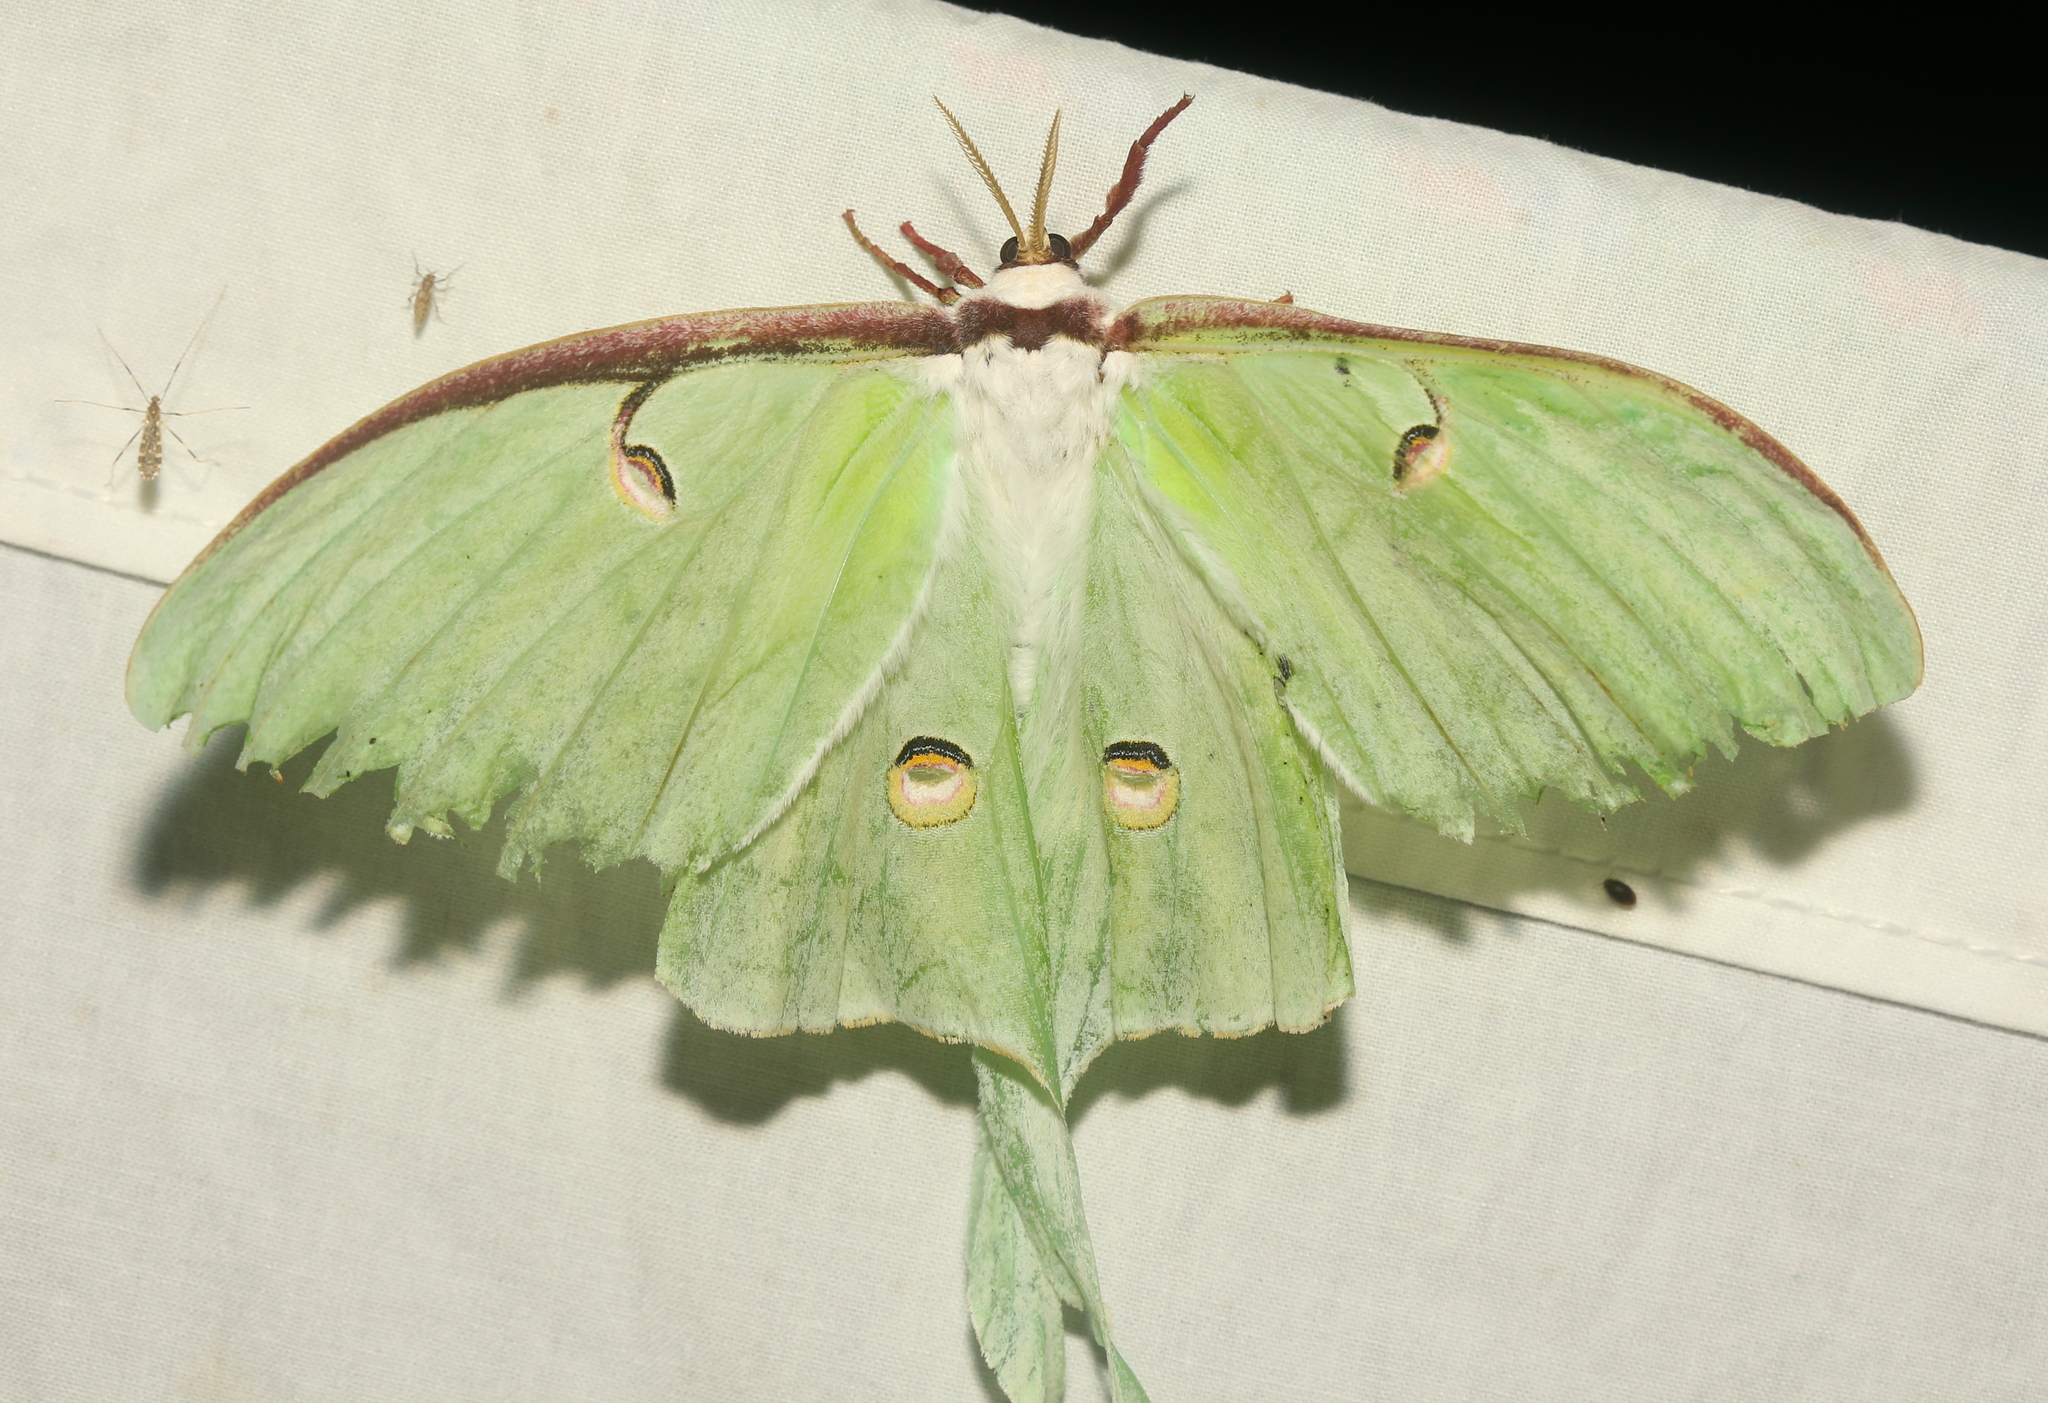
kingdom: Animalia
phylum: Arthropoda
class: Insecta
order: Lepidoptera
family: Saturniidae
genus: Actias
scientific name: Actias luna
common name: Luna moth
